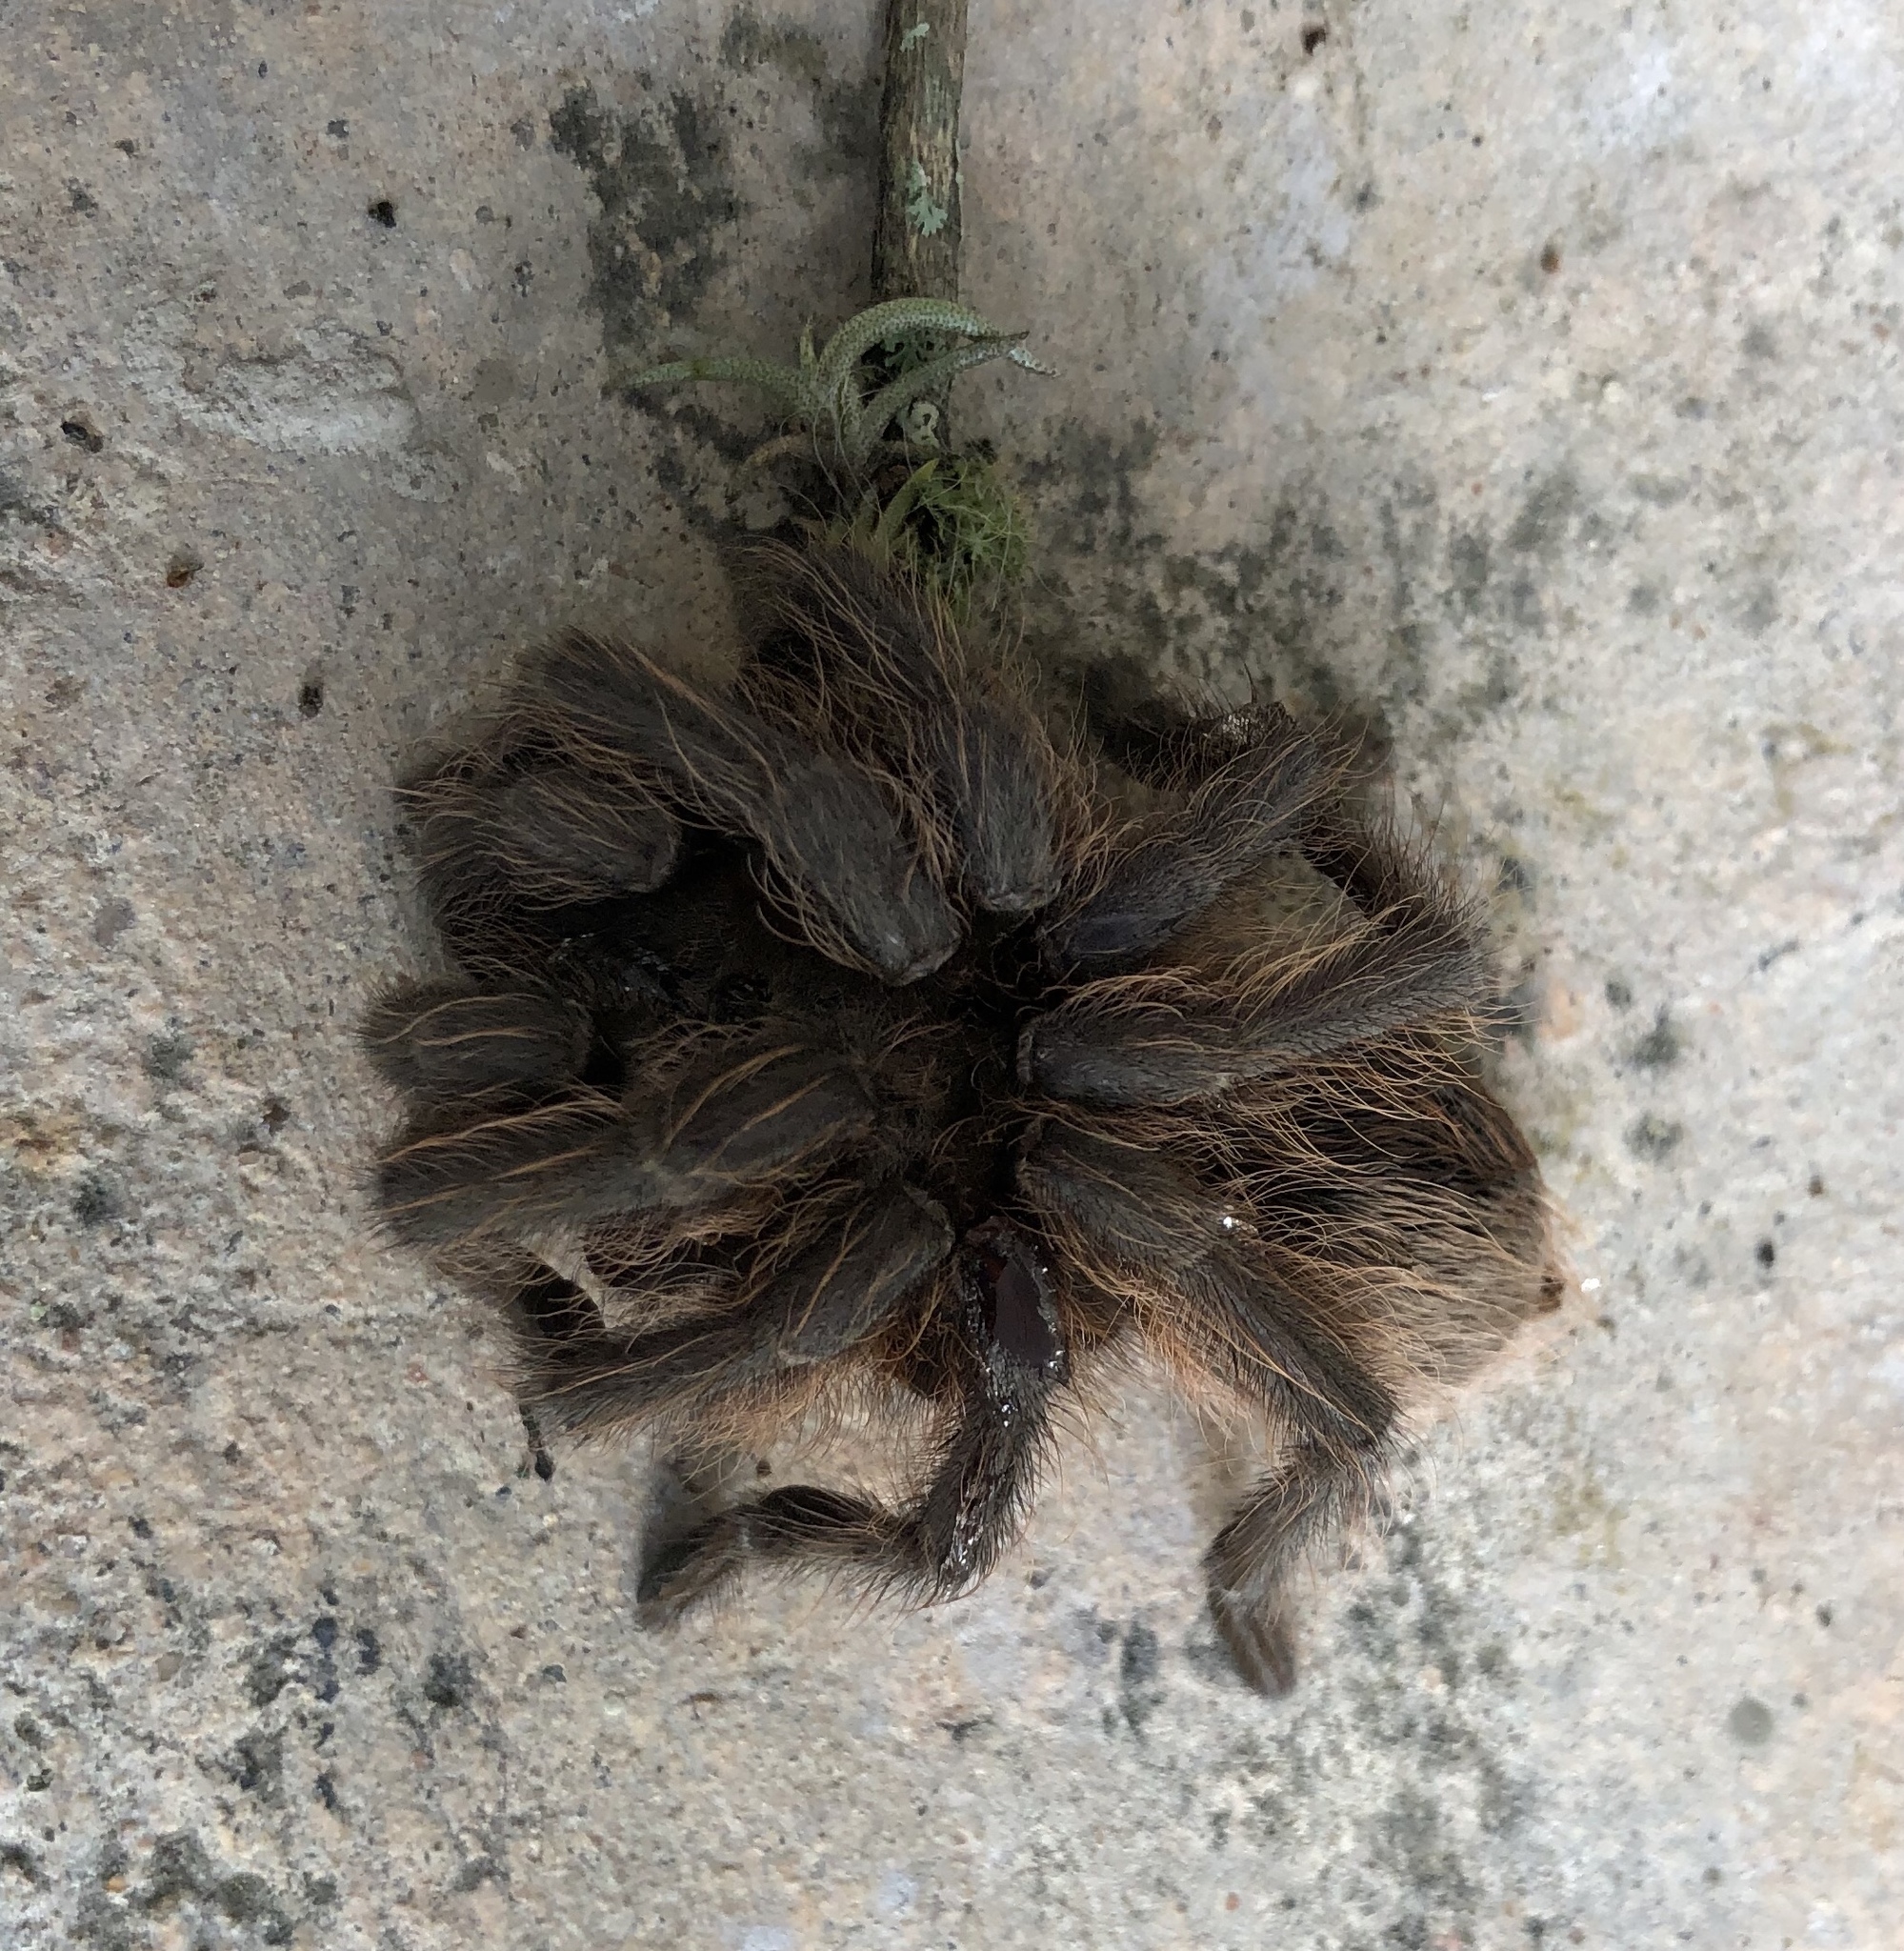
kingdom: Animalia
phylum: Arthropoda
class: Arachnida
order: Araneae
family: Theraphosidae
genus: Aphonopelma
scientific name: Aphonopelma hentzi
